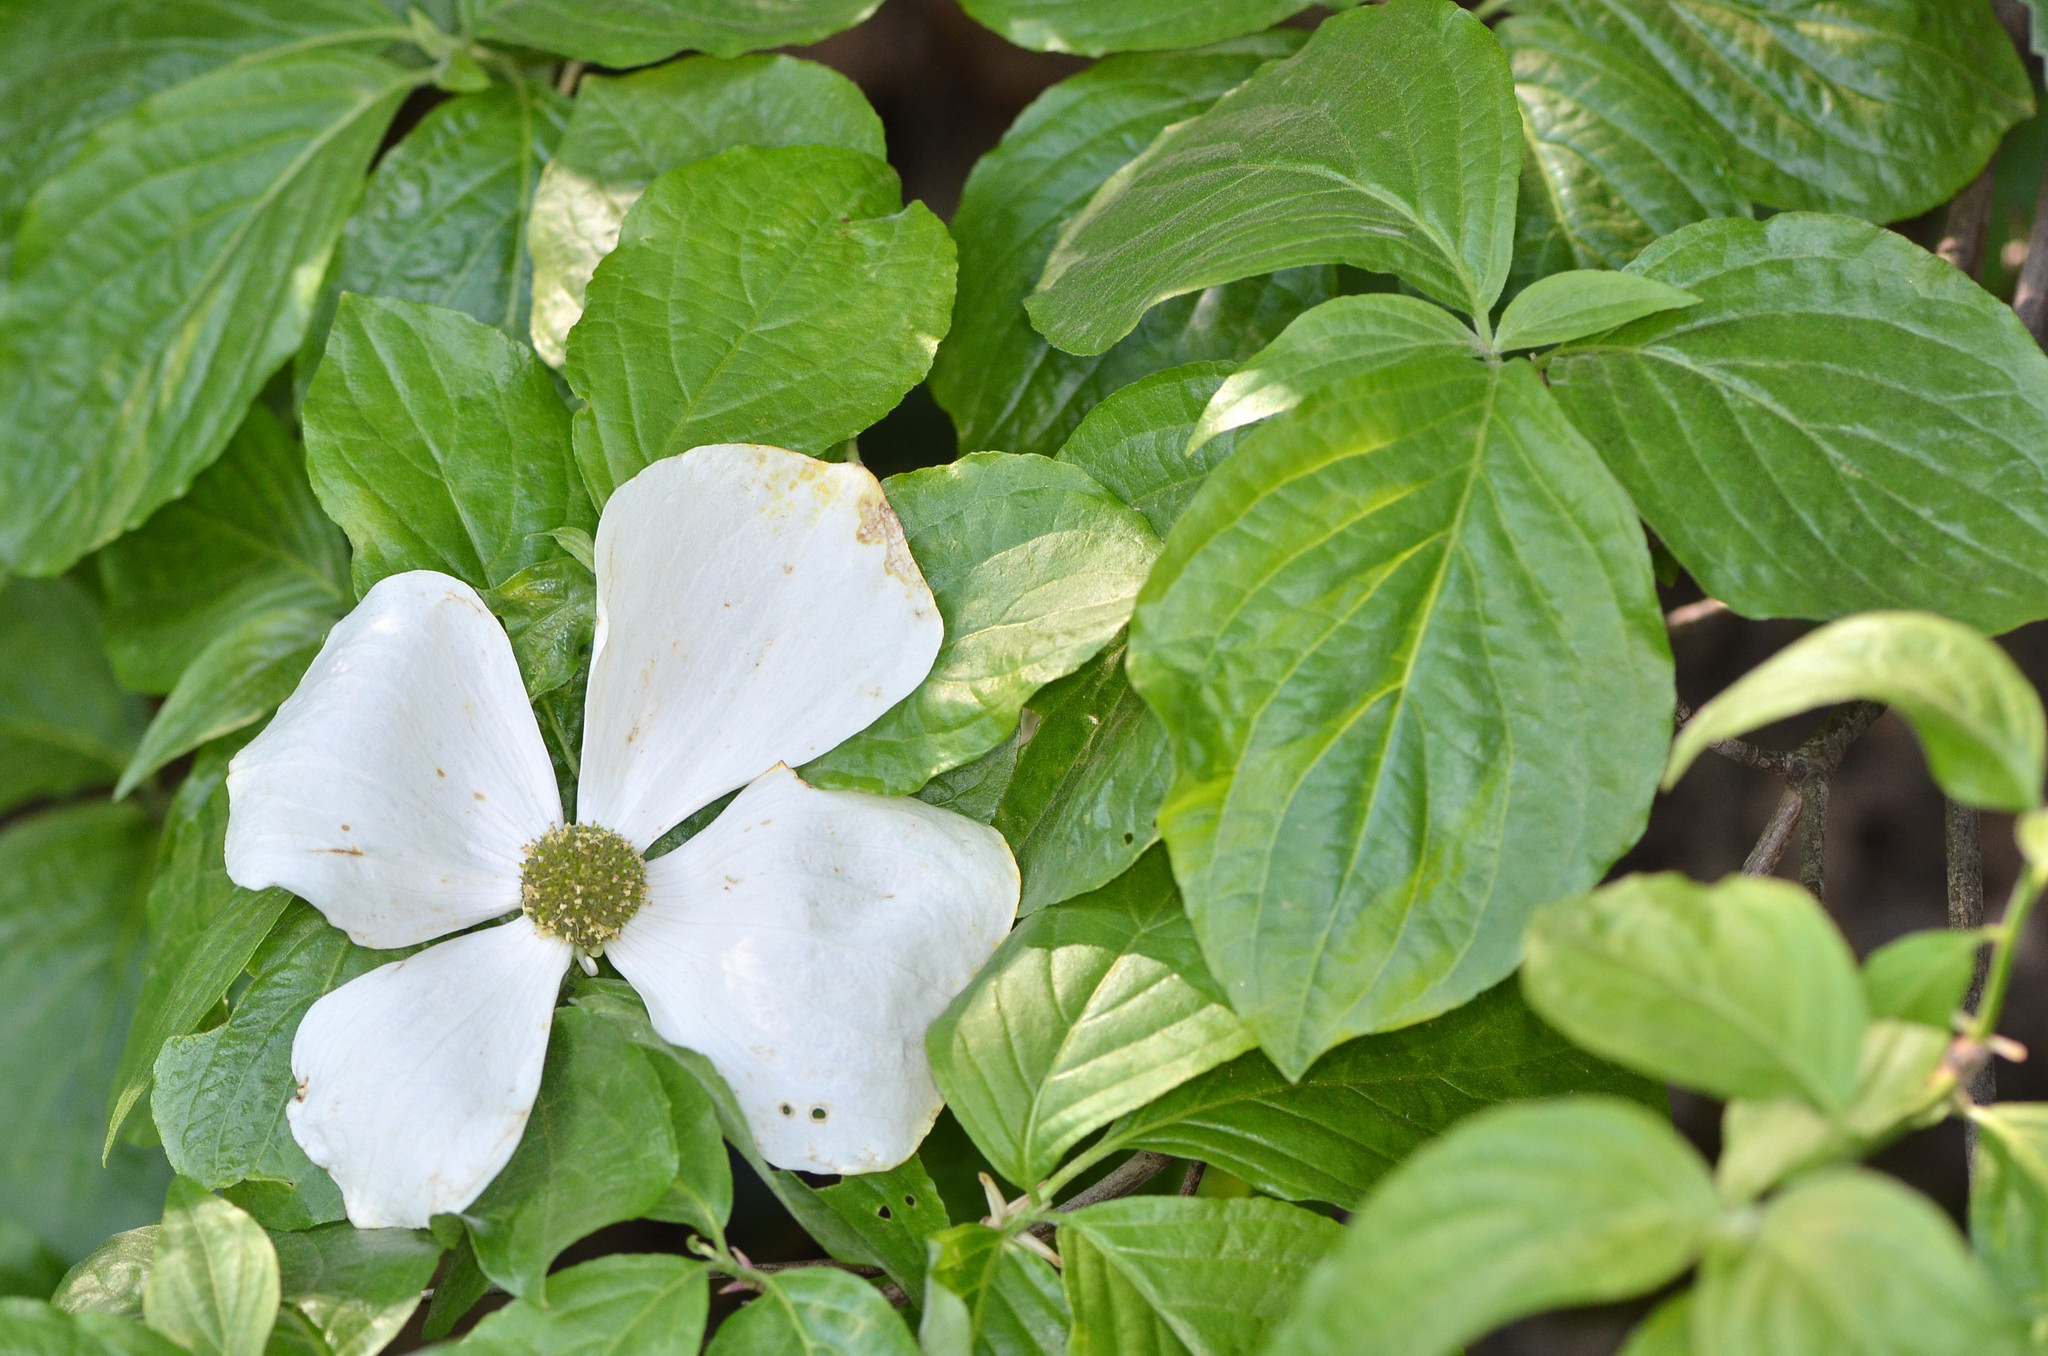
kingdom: Plantae
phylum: Tracheophyta
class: Magnoliopsida
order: Cornales
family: Cornaceae
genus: Cornus
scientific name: Cornus nuttallii
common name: Pacific dogwood
